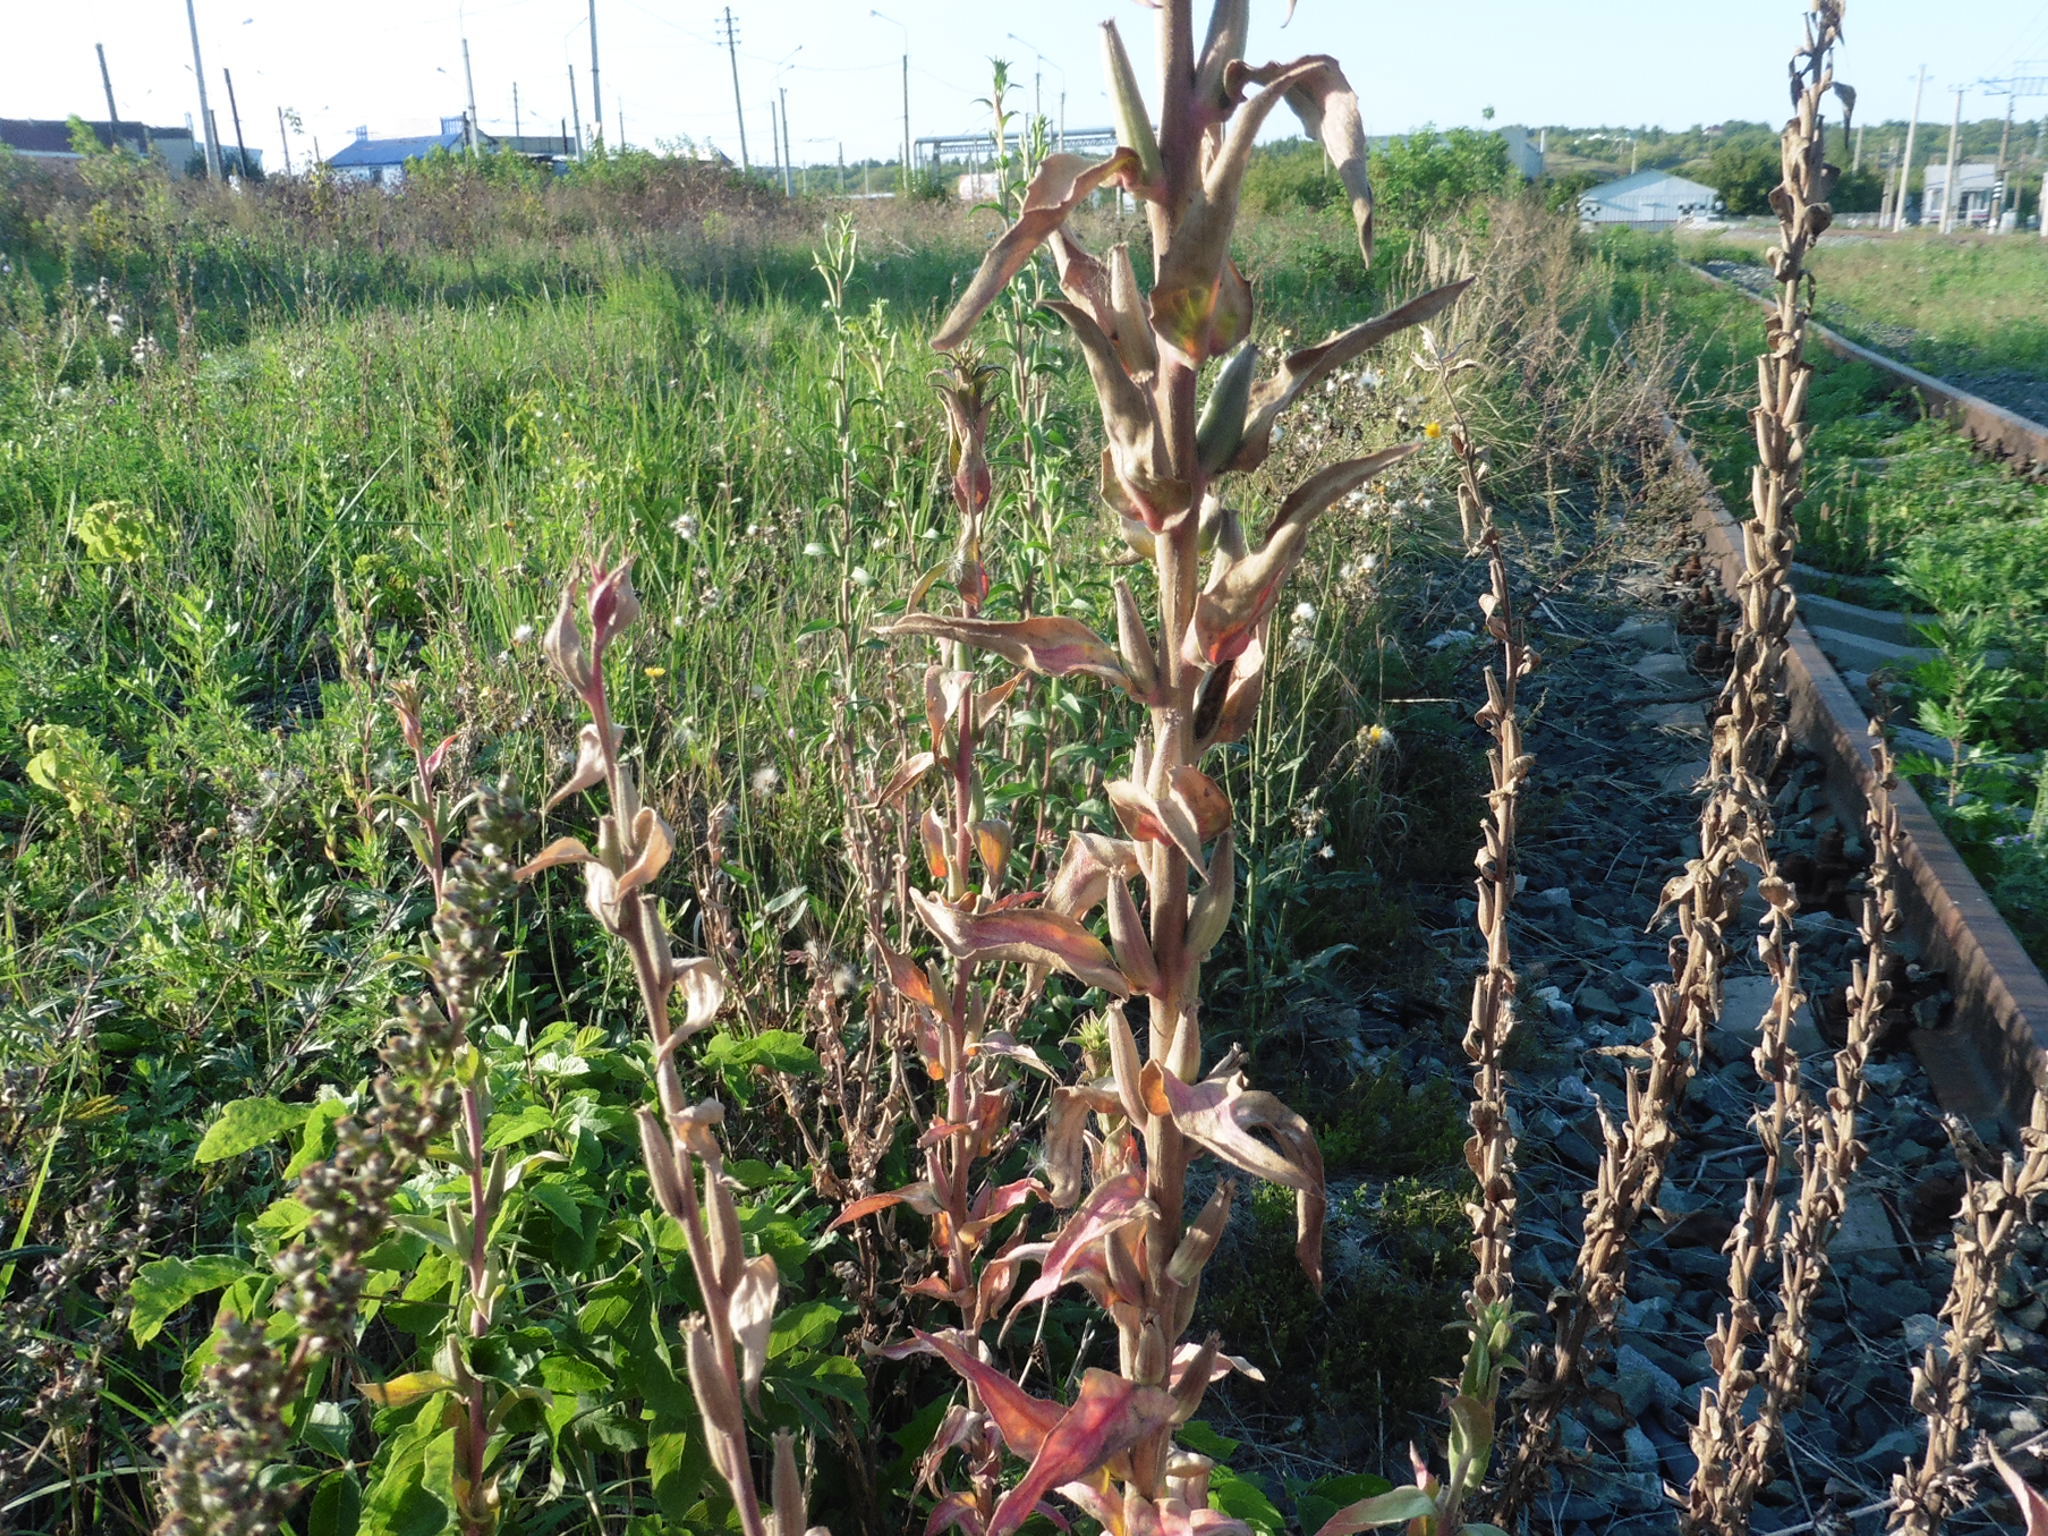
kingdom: Plantae
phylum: Tracheophyta
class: Magnoliopsida
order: Myrtales
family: Onagraceae
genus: Oenothera
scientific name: Oenothera villosa
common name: Hairy evening-primrose
